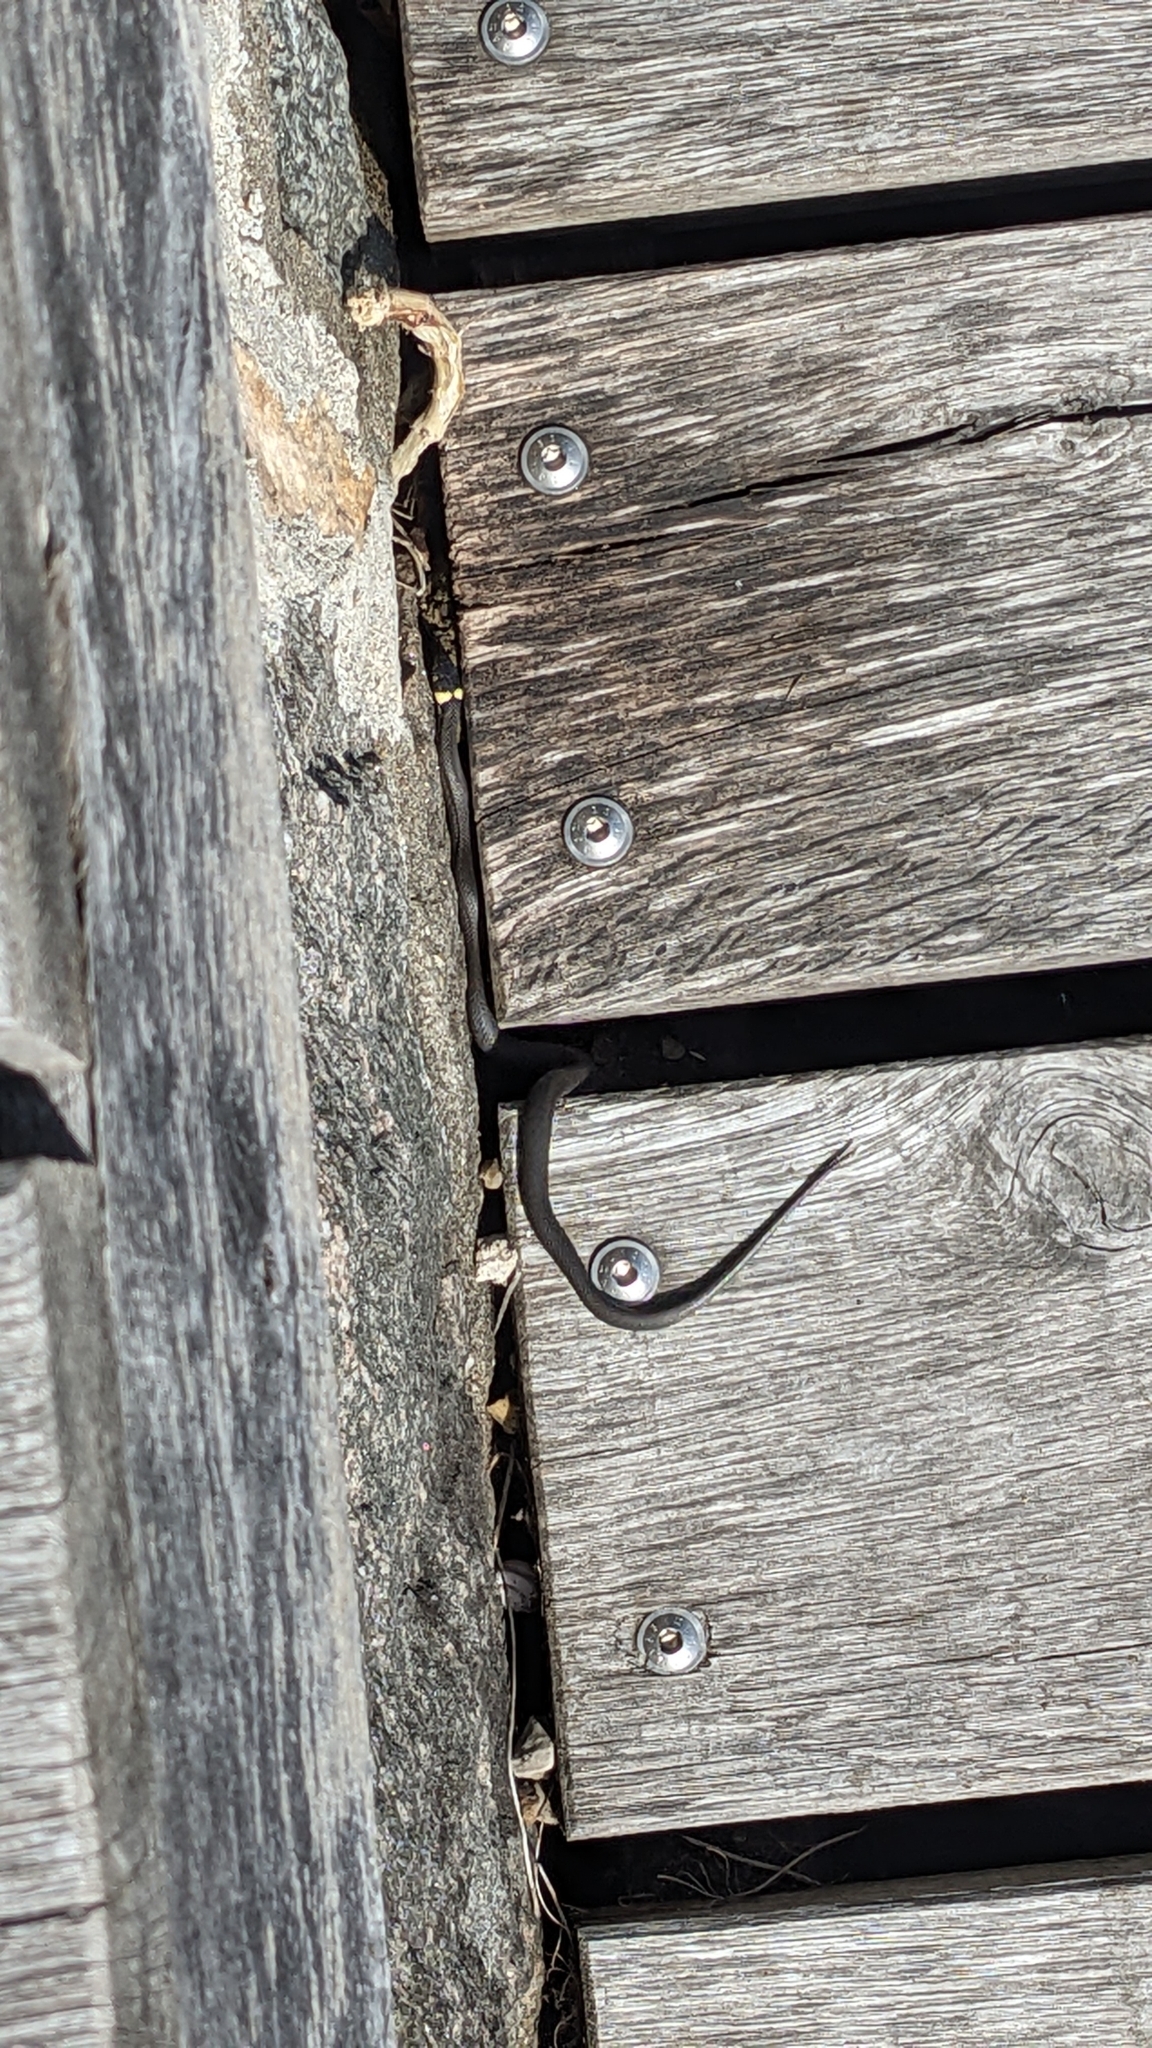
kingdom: Animalia
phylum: Chordata
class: Squamata
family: Colubridae
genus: Natrix
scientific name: Natrix natrix
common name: Grass snake
